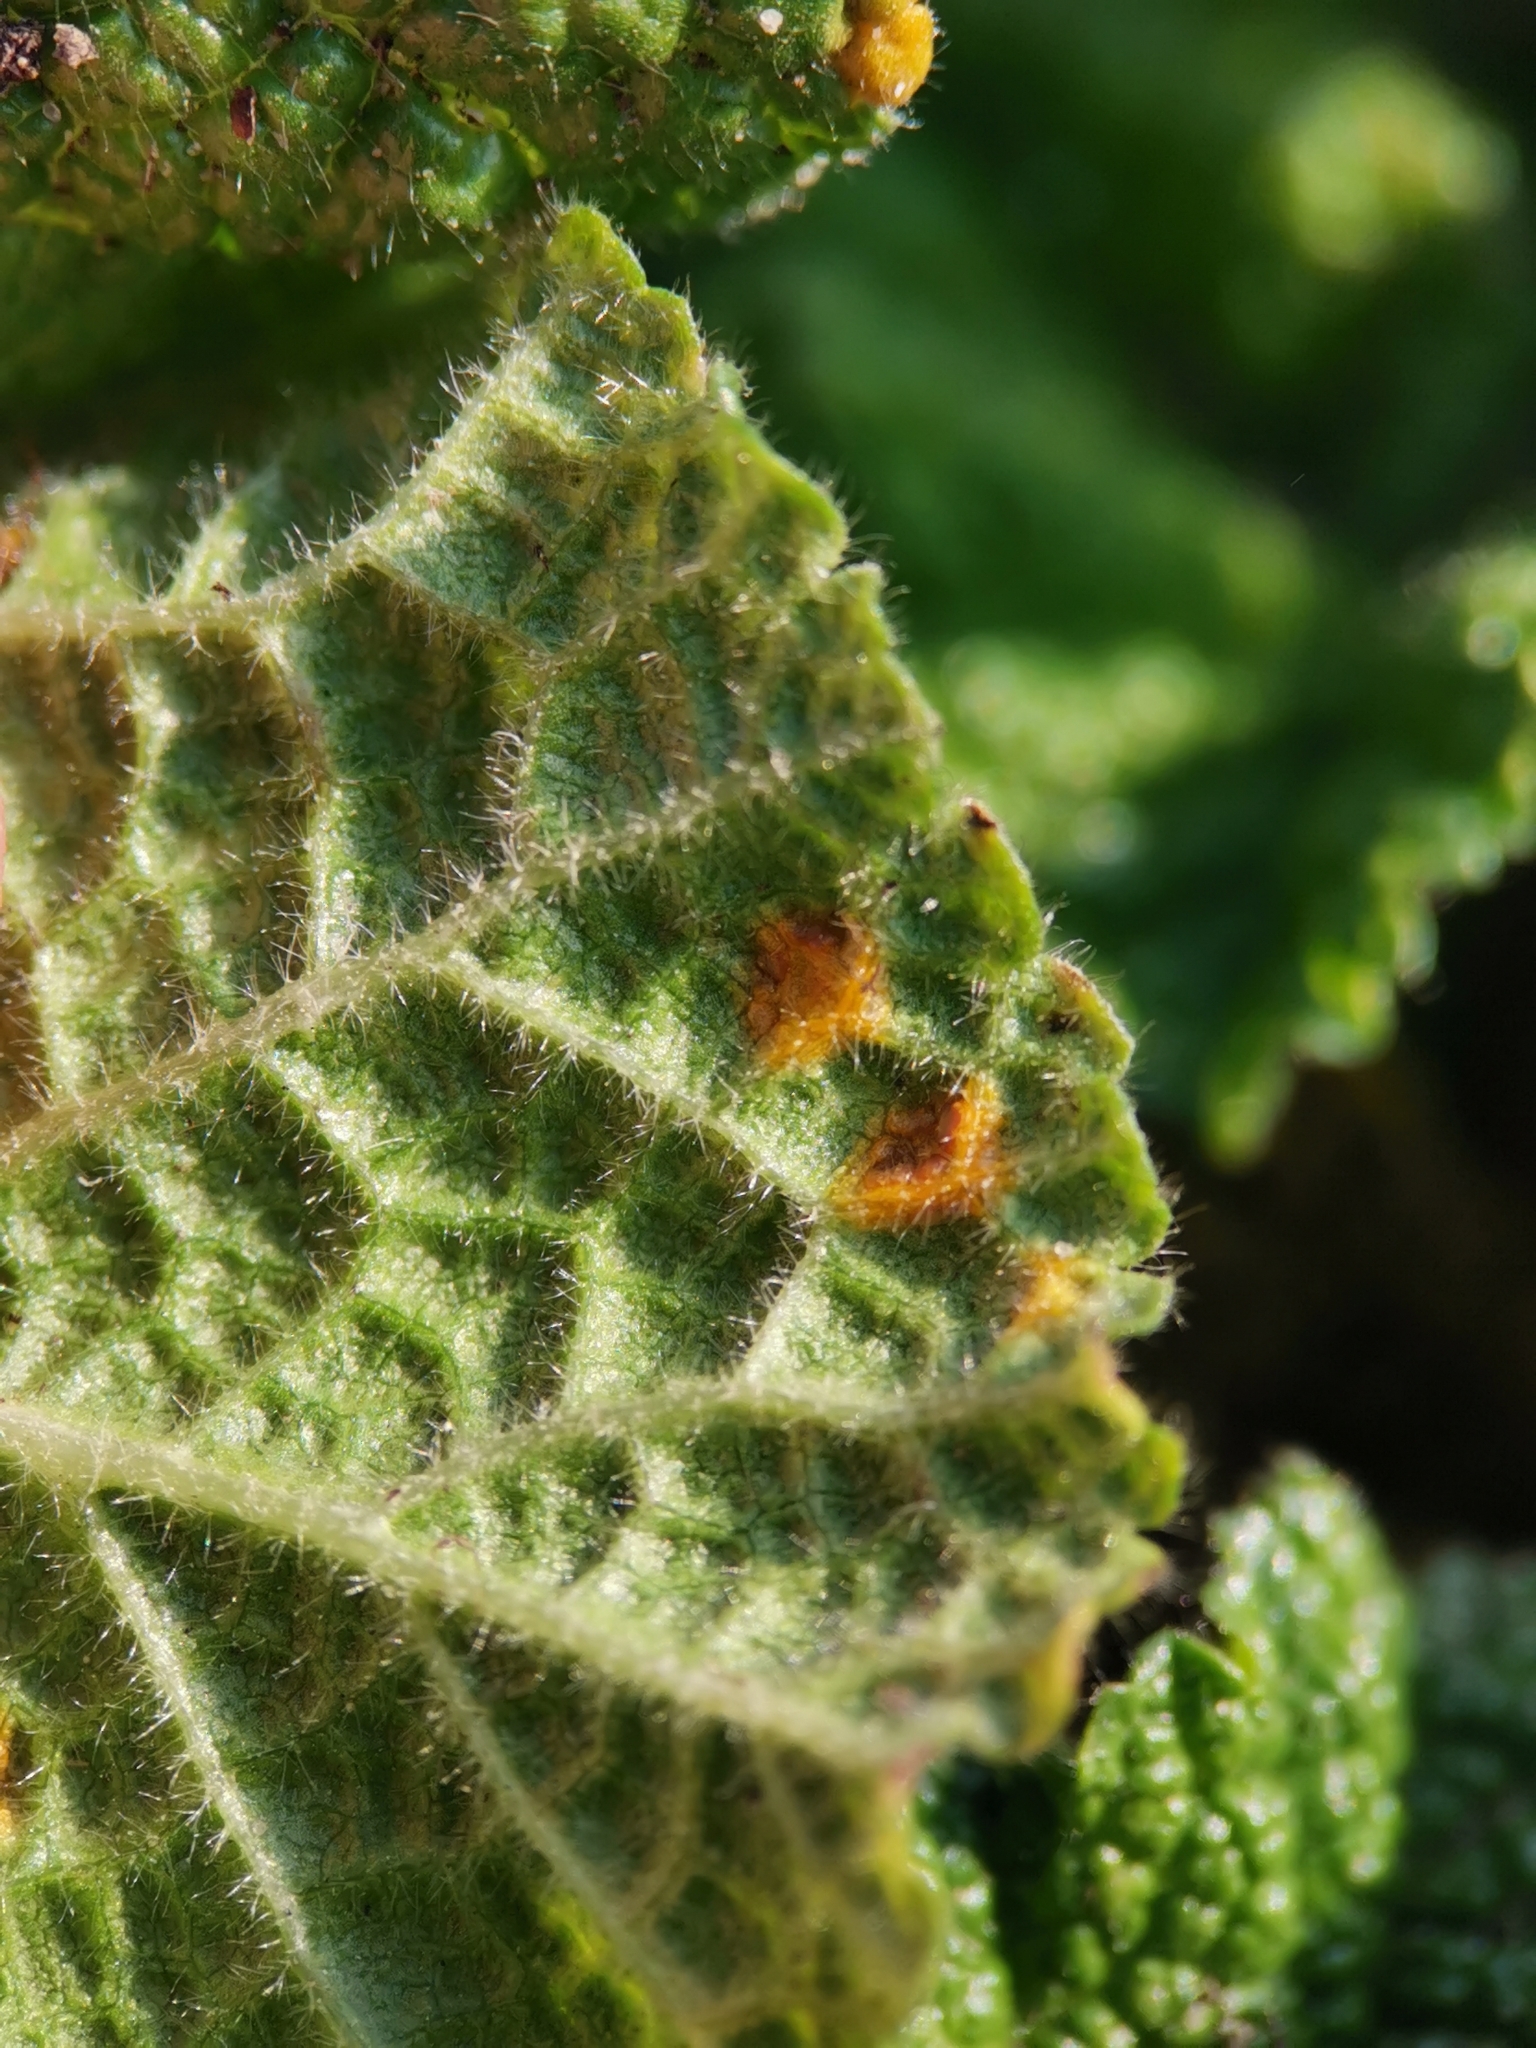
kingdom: Fungi
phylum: Basidiomycota
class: Pucciniomycetes
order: Pucciniales
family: Pucciniaceae
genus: Puccinia
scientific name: Puccinia malvacearum
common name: Hollyhock rust
